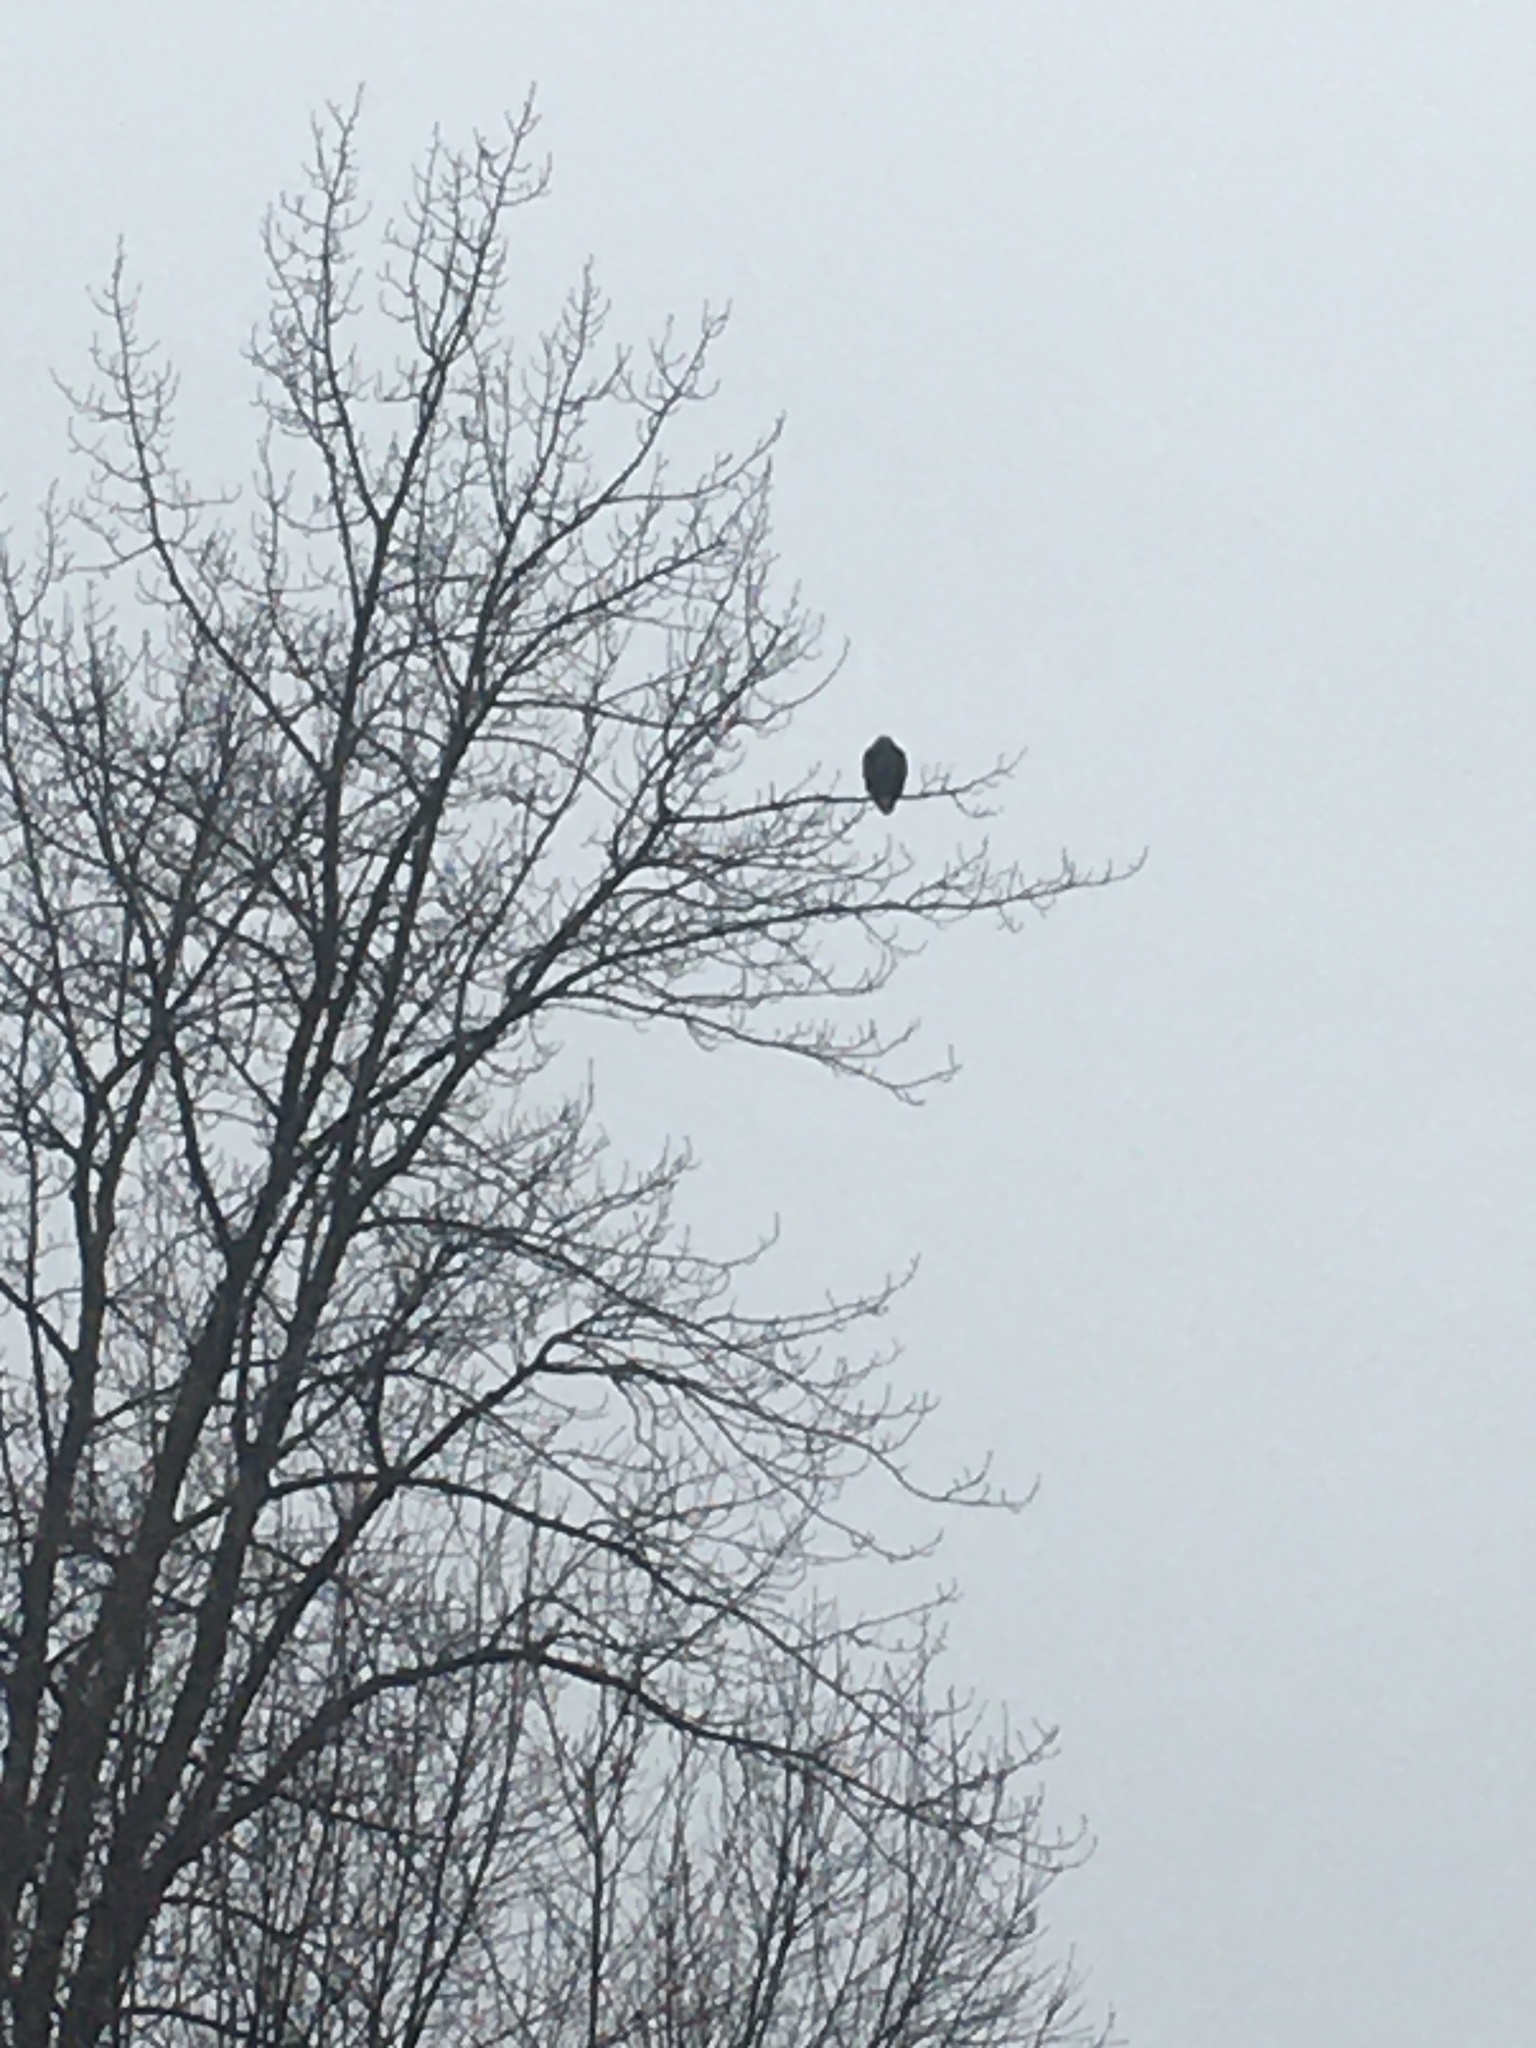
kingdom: Animalia
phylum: Chordata
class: Aves
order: Accipitriformes
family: Accipitridae
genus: Haliaeetus
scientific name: Haliaeetus leucocephalus
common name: Bald eagle
